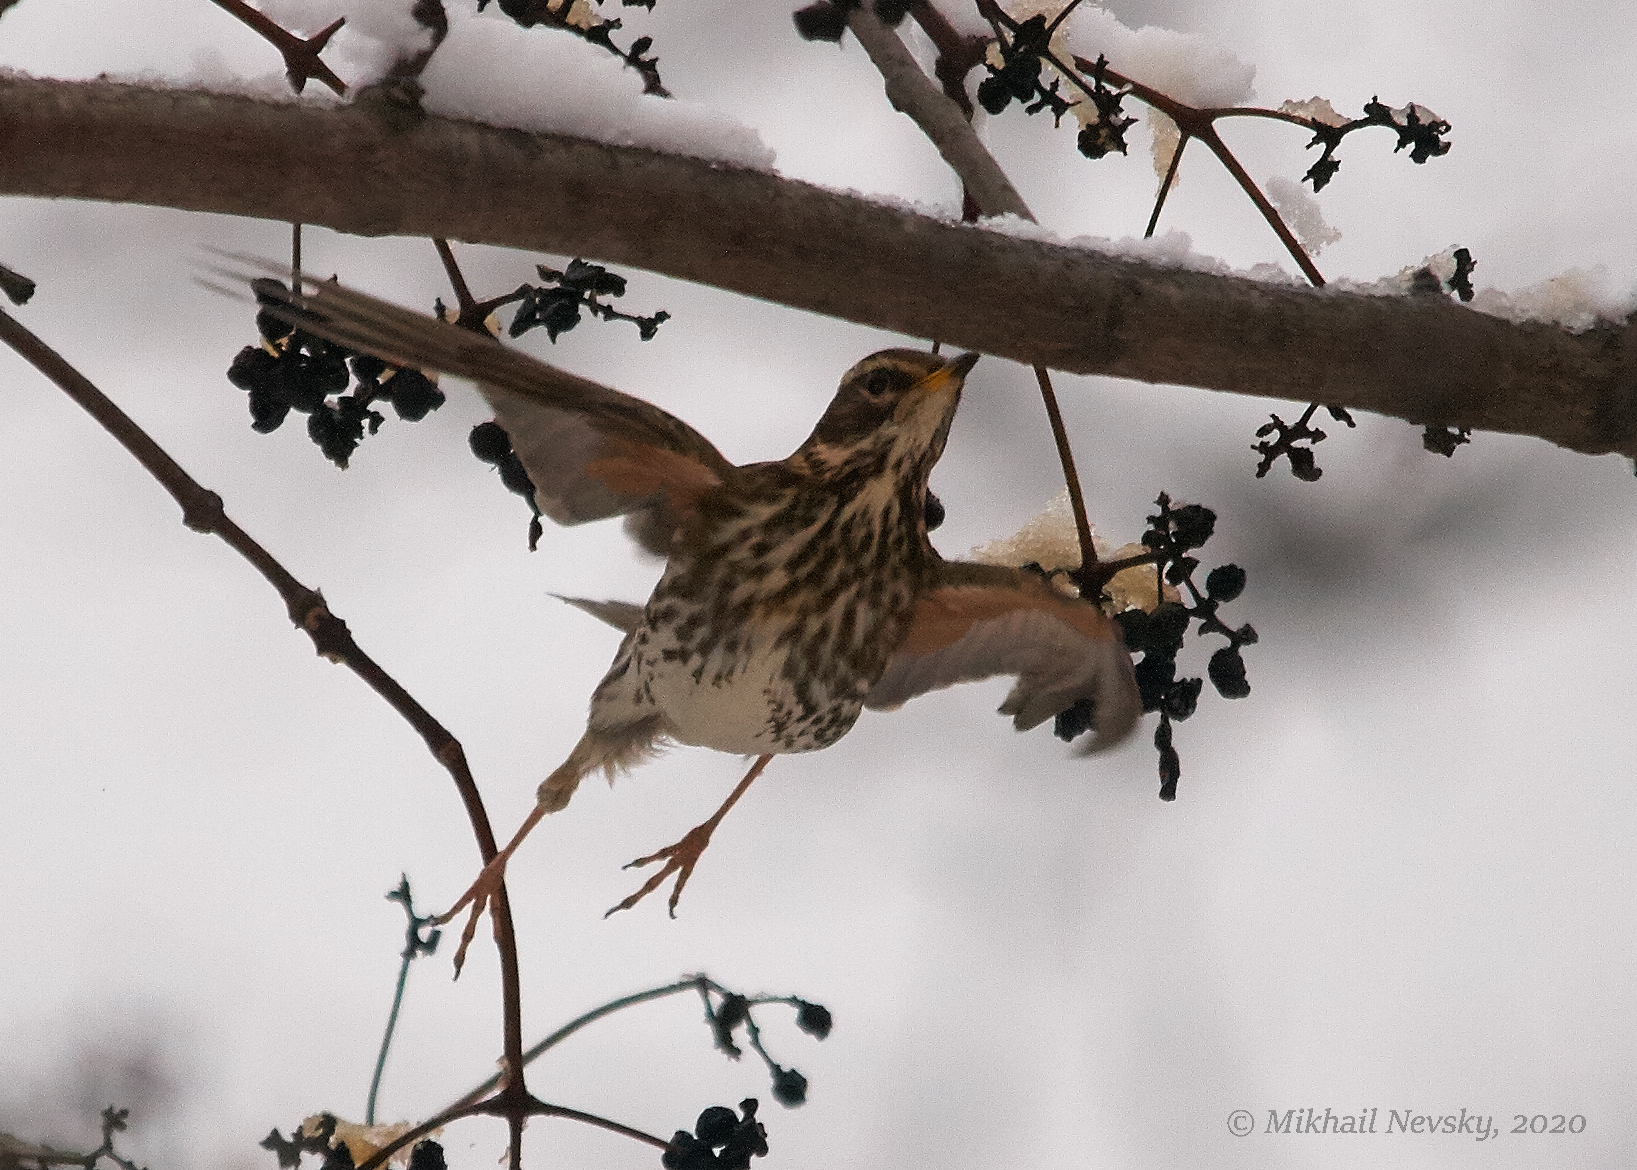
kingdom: Animalia
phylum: Chordata
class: Aves
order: Passeriformes
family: Turdidae
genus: Turdus
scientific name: Turdus iliacus
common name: Redwing
